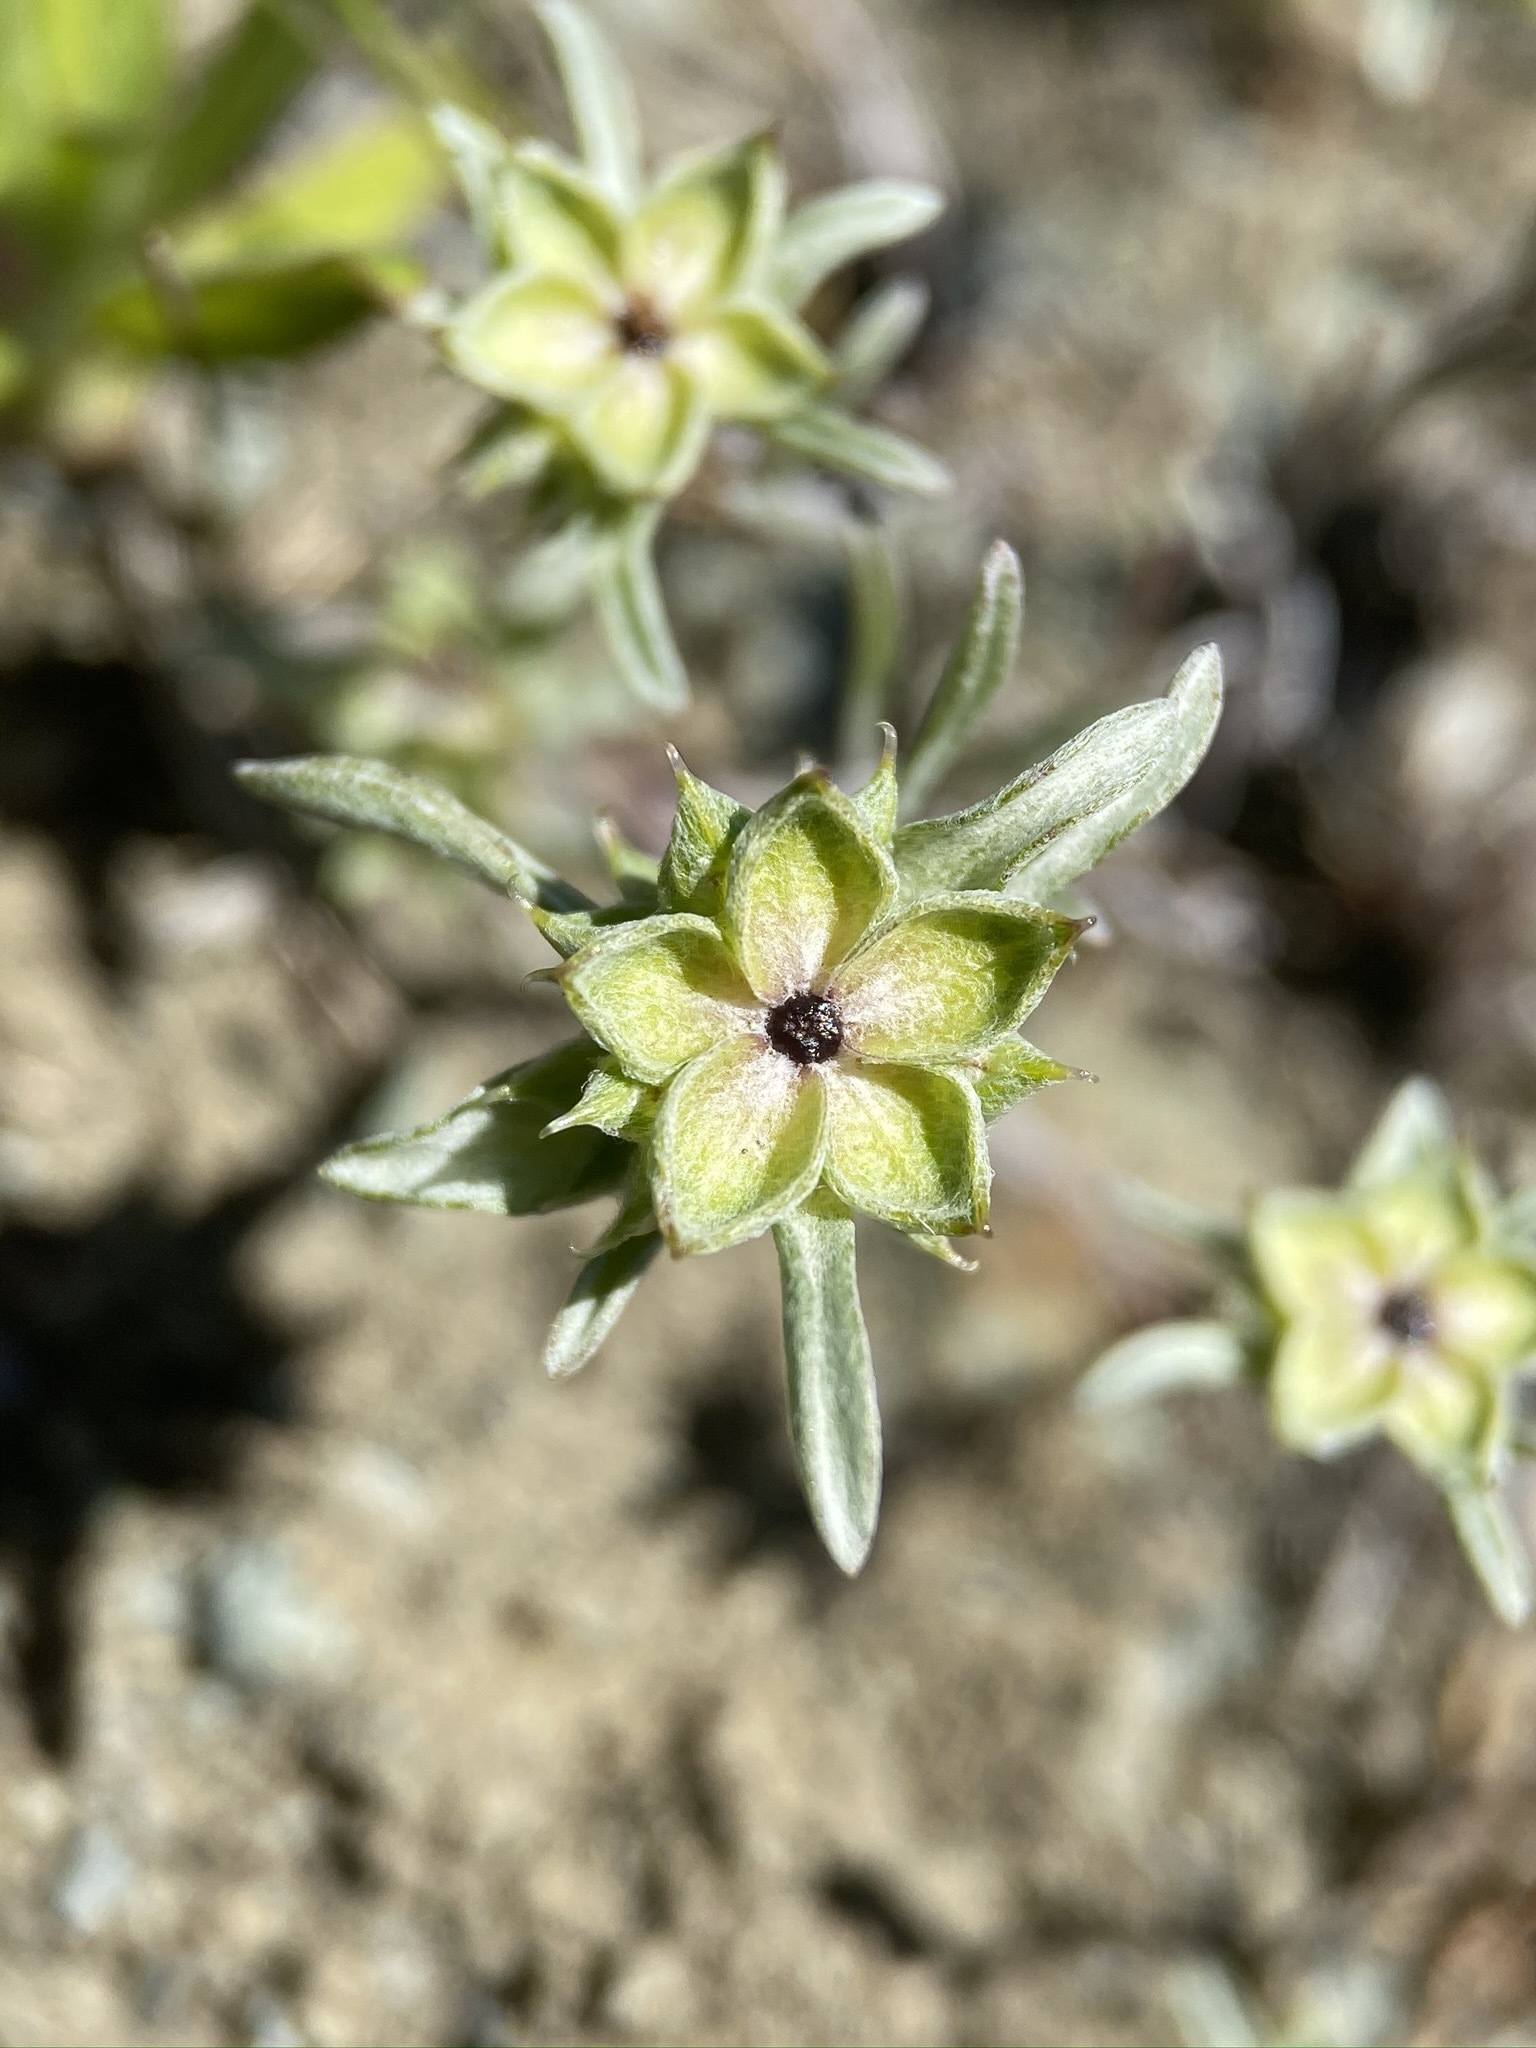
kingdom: Plantae
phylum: Tracheophyta
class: Magnoliopsida
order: Asterales
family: Asteraceae
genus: Ancistrocarphus
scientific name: Ancistrocarphus filagineus
